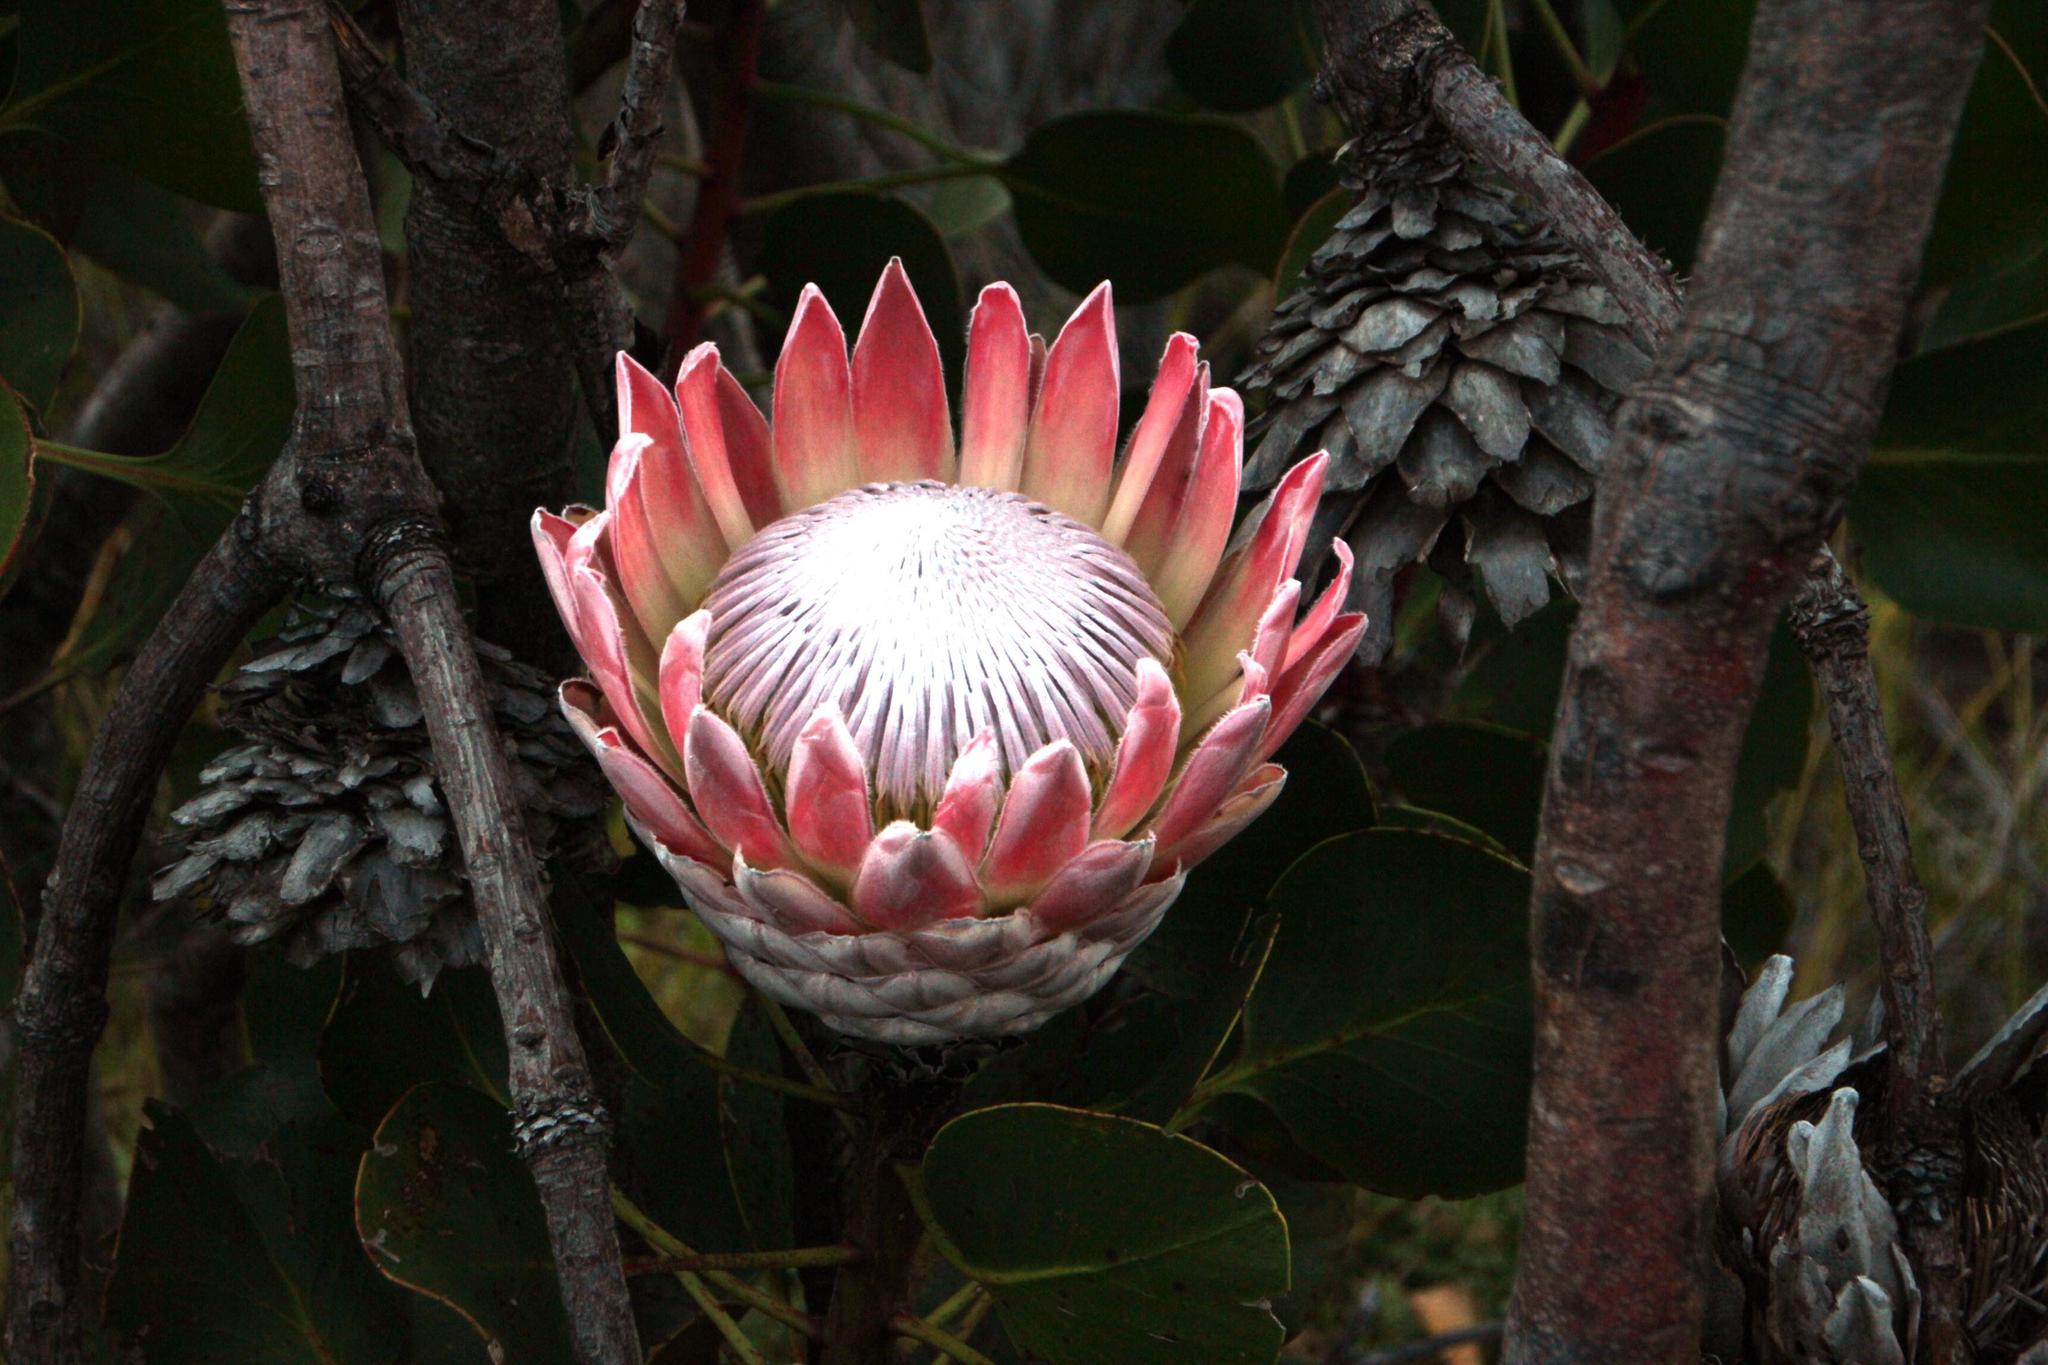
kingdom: Plantae
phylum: Tracheophyta
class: Magnoliopsida
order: Proteales
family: Proteaceae
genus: Protea
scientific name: Protea cynaroides
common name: King protea
